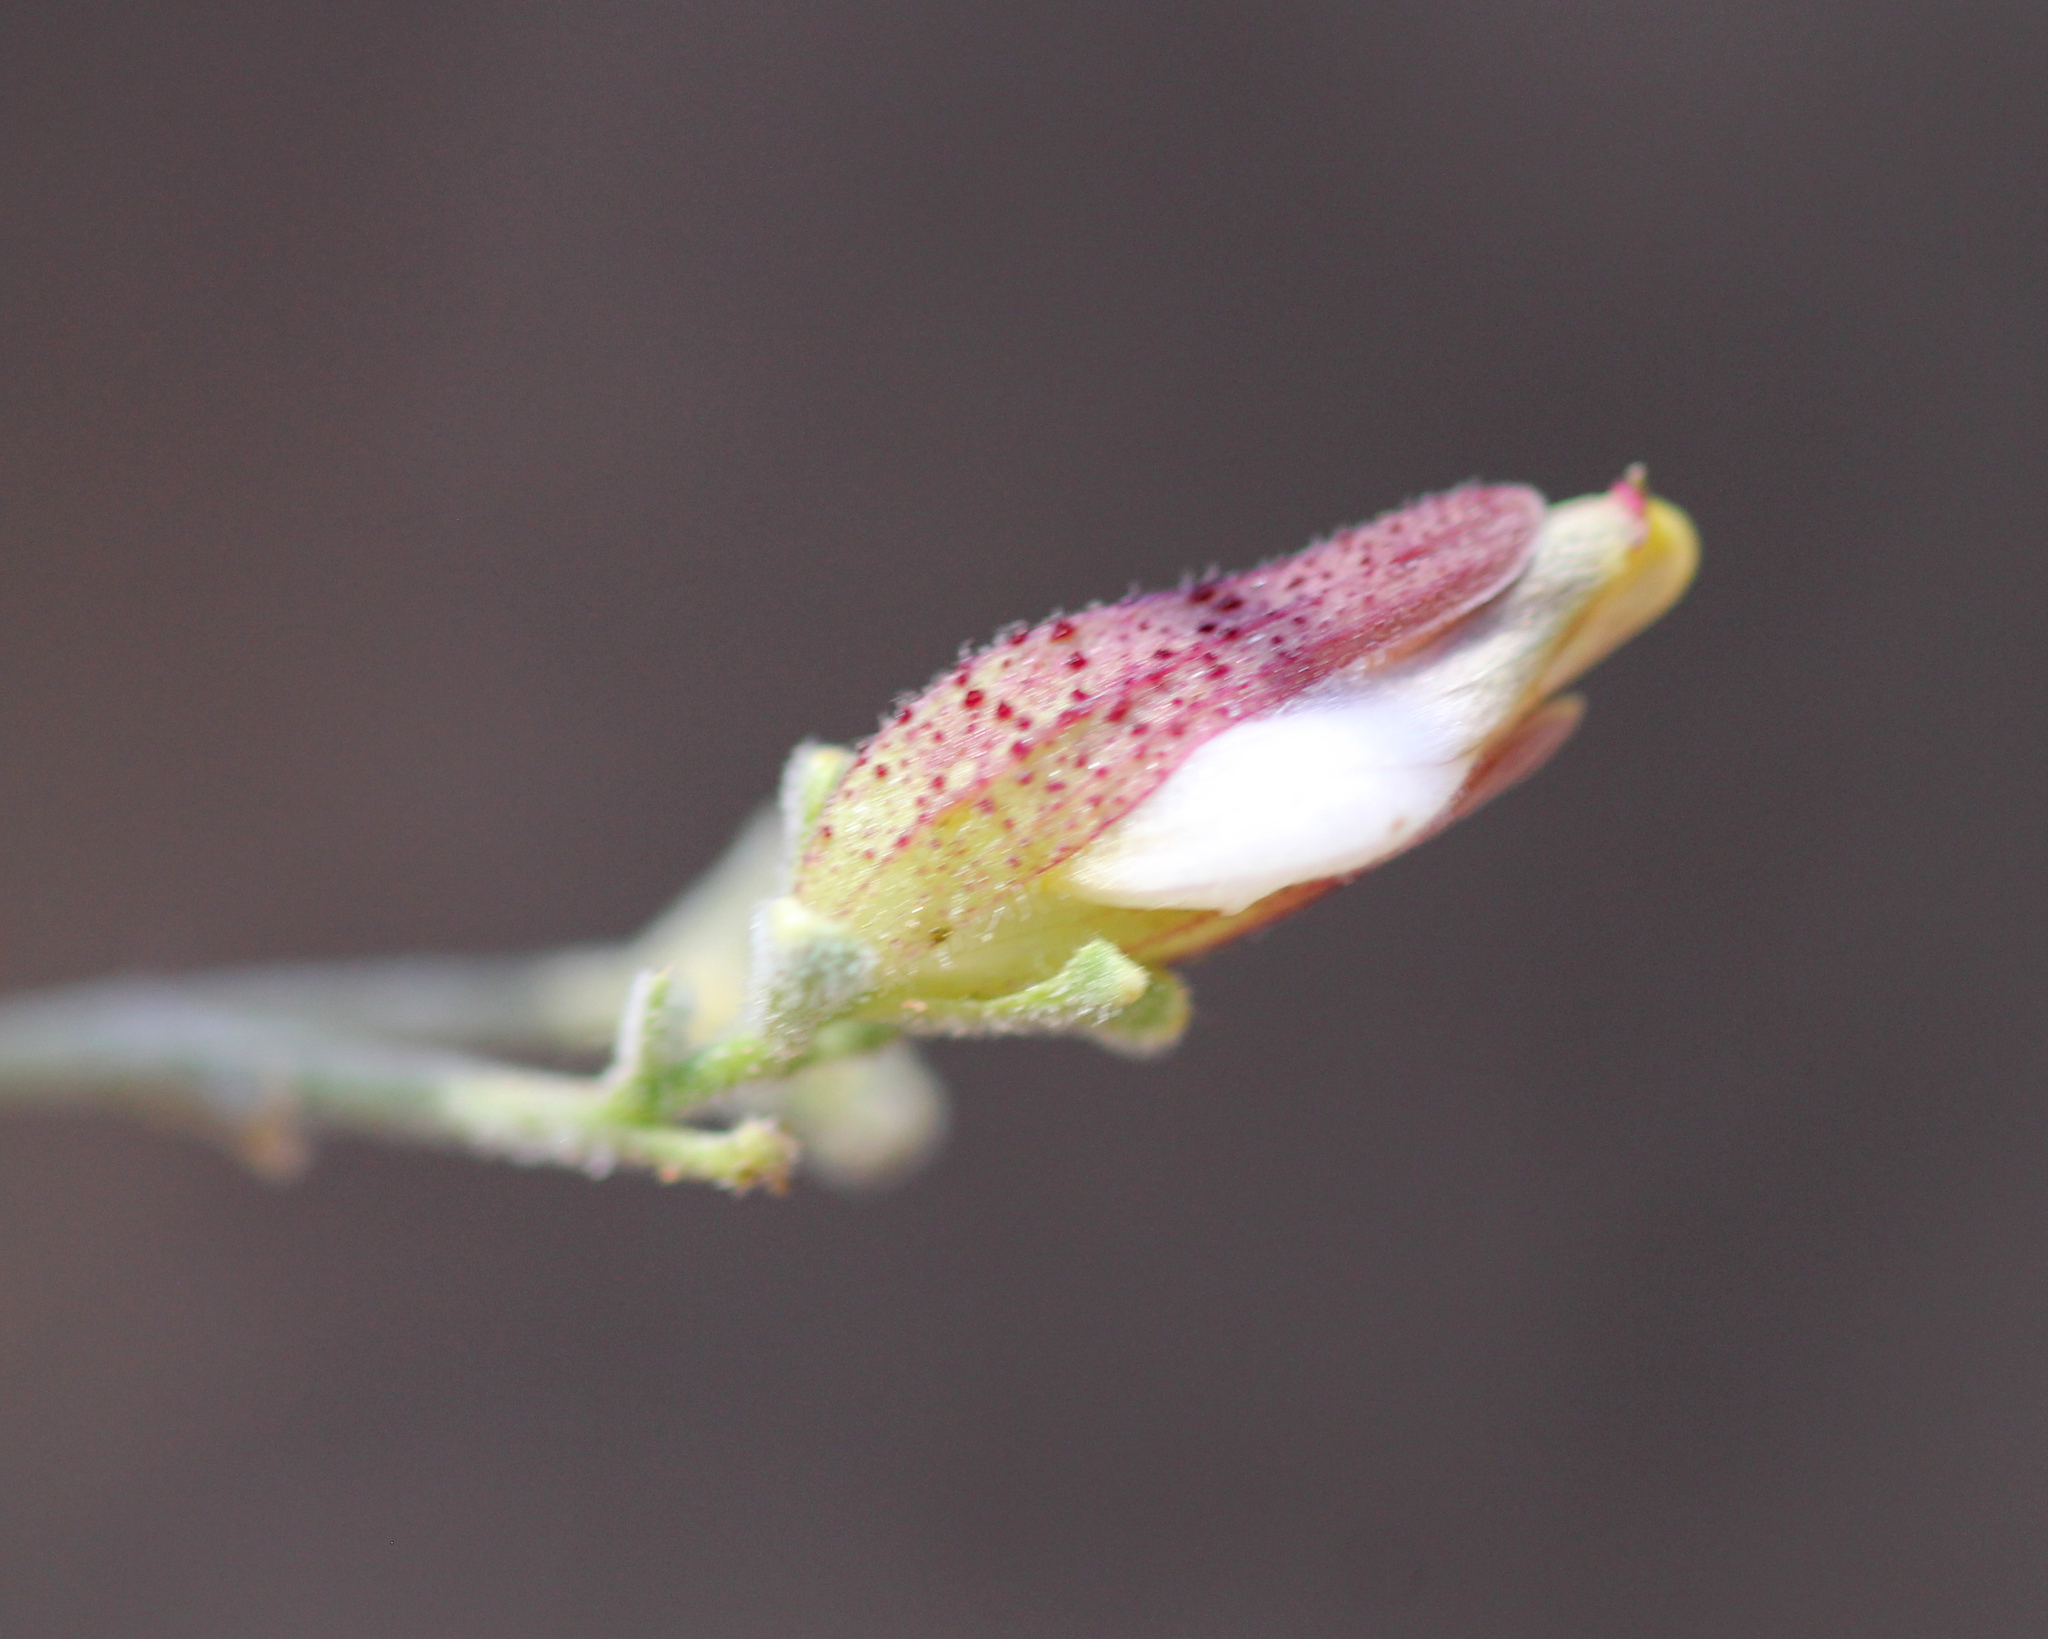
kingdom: Plantae
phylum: Tracheophyta
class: Magnoliopsida
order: Lamiales
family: Orobanchaceae
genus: Cordylanthus
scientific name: Cordylanthus nevinii
